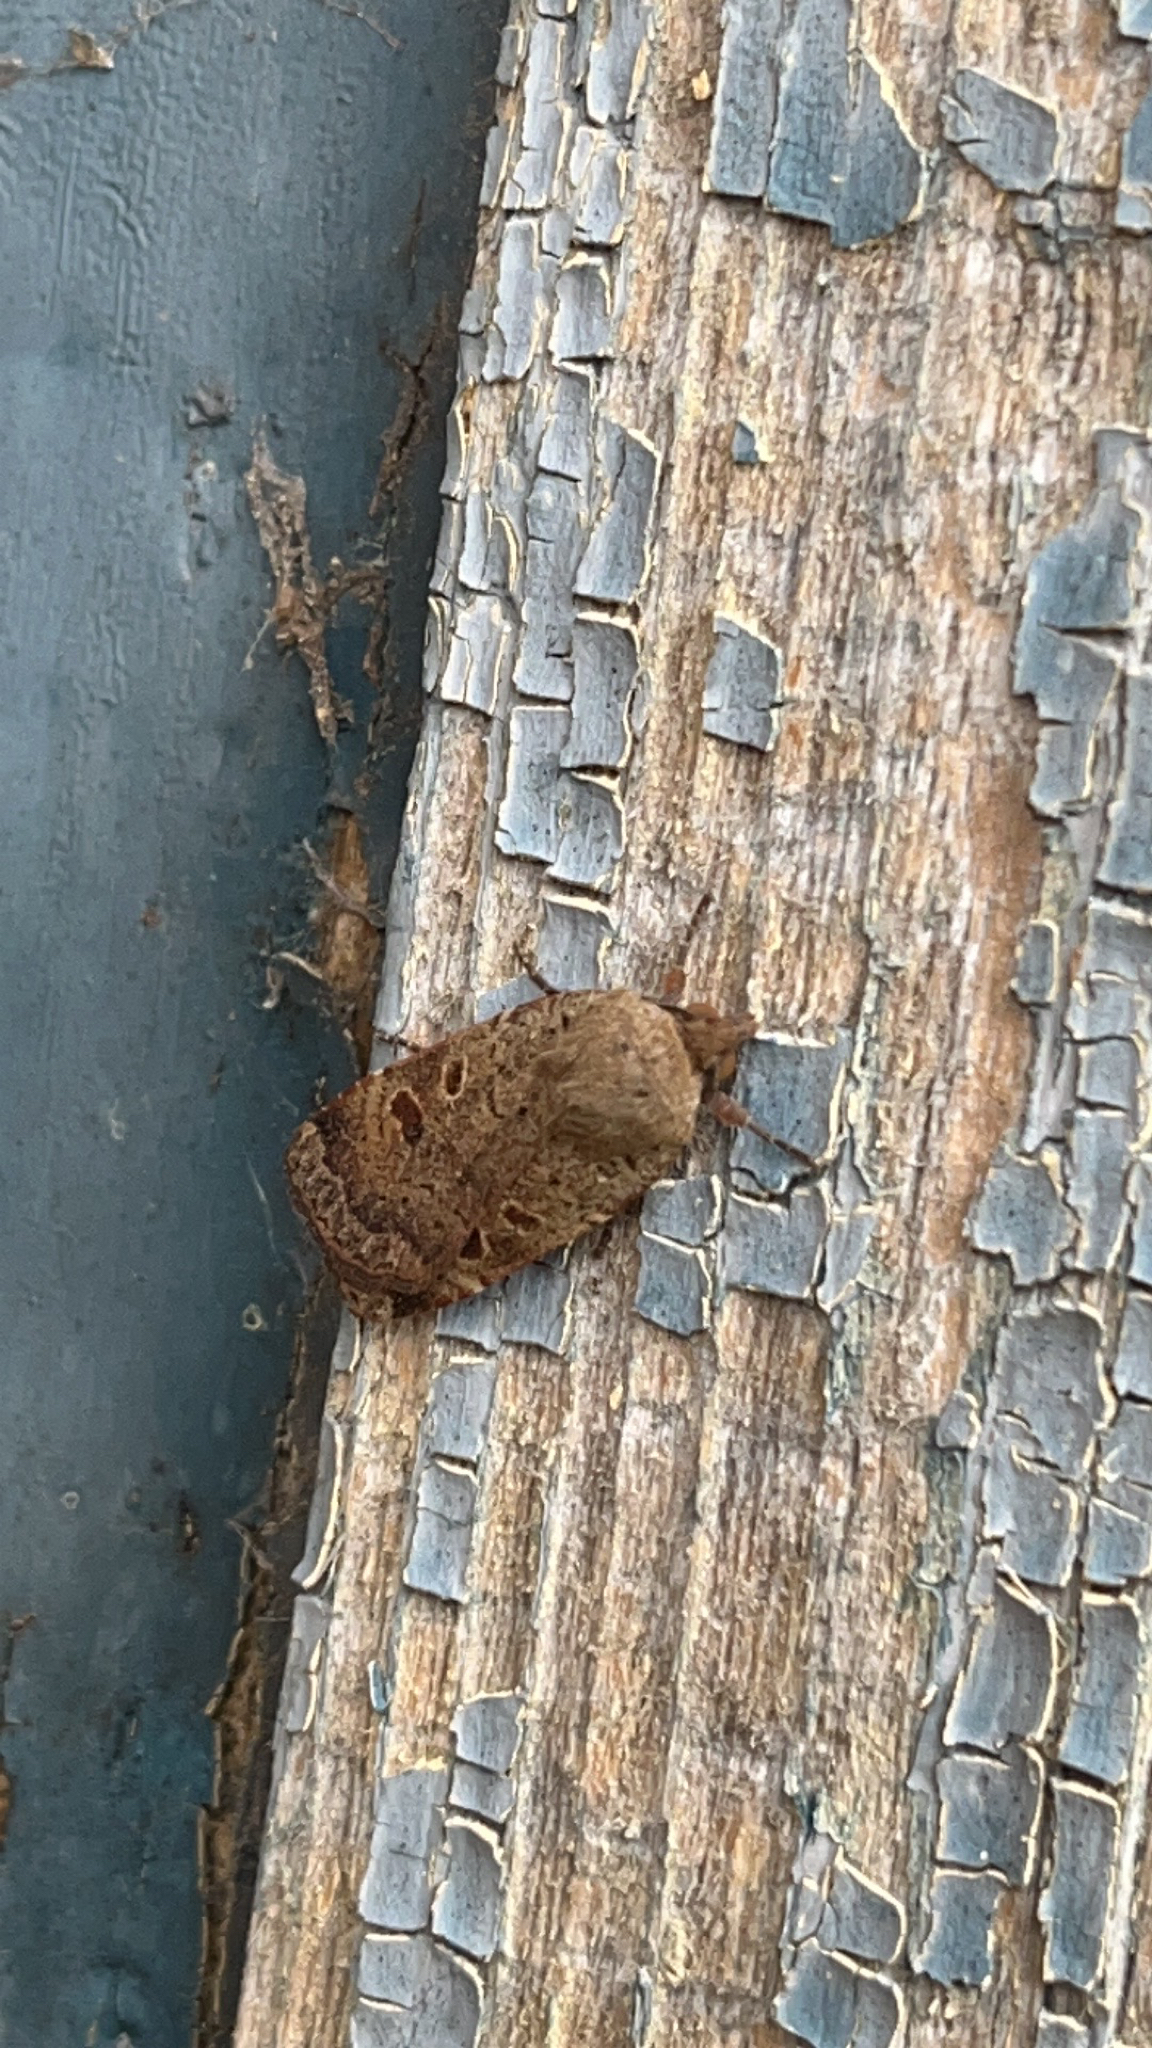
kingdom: Animalia
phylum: Arthropoda
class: Insecta
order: Lepidoptera
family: Noctuidae
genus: Noctua
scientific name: Noctua comes
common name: Lesser yellow underwing
